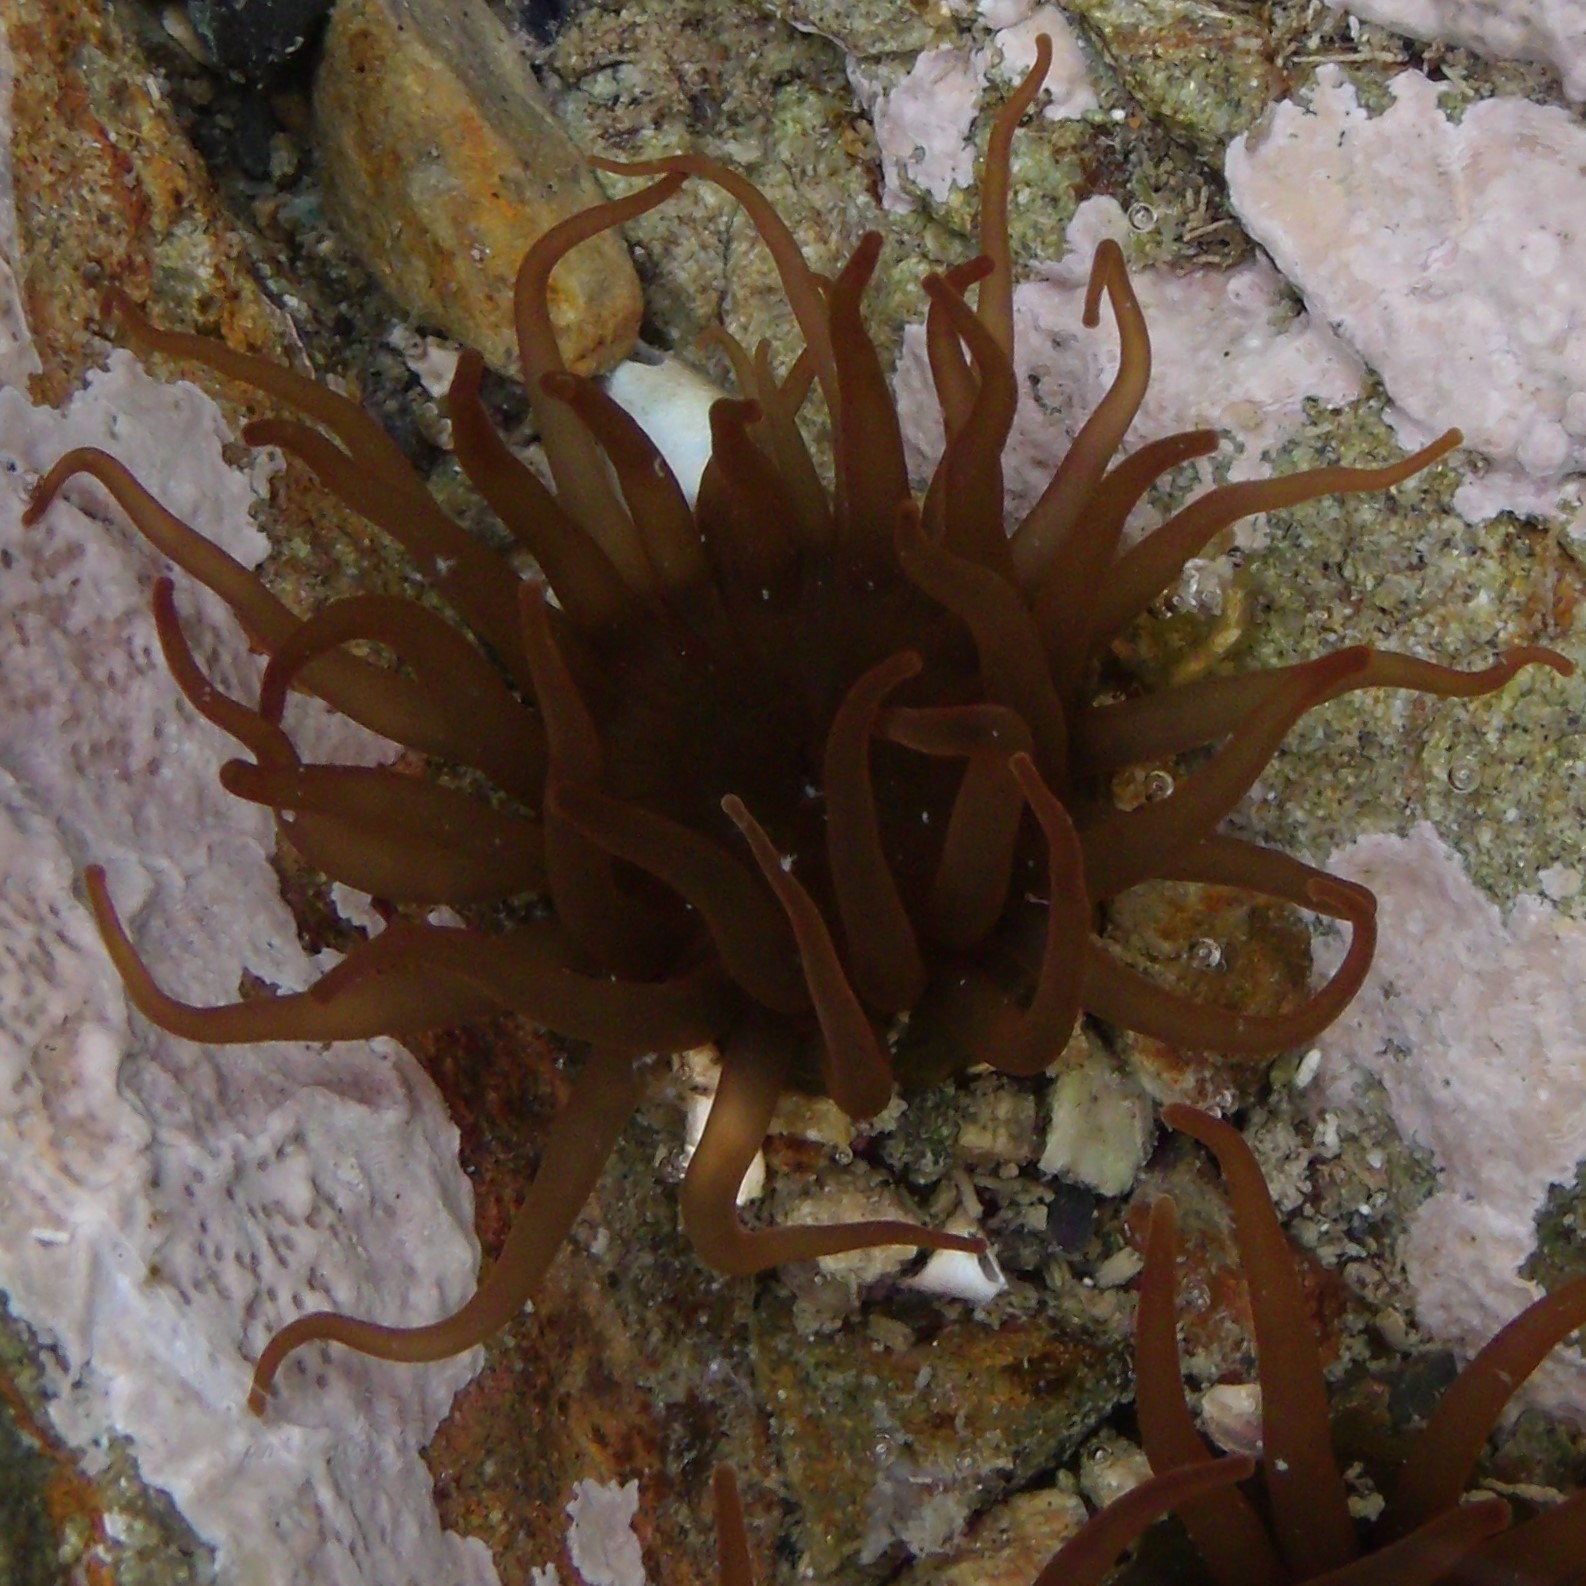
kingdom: Animalia
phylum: Cnidaria
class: Anthozoa
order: Actiniaria
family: Actiniidae
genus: Isactinia
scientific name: Isactinia olivacea
